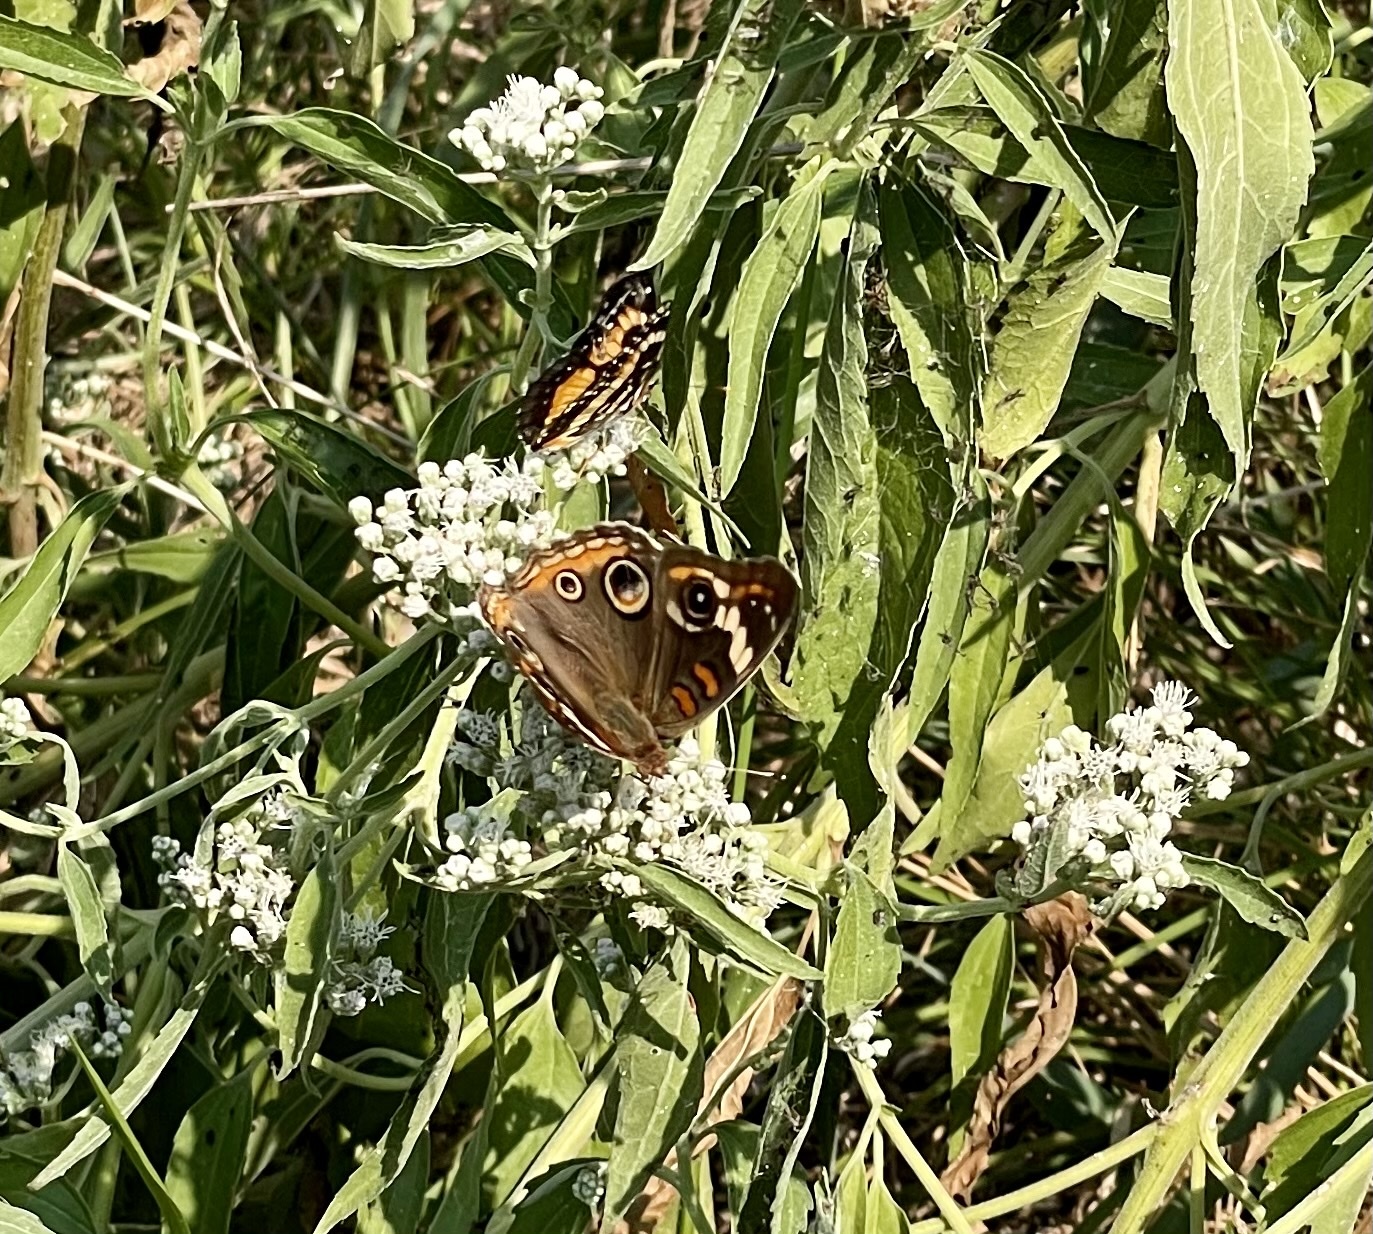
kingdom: Animalia
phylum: Arthropoda
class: Insecta
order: Lepidoptera
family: Nymphalidae
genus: Junonia
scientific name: Junonia coenia
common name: Common buckeye
